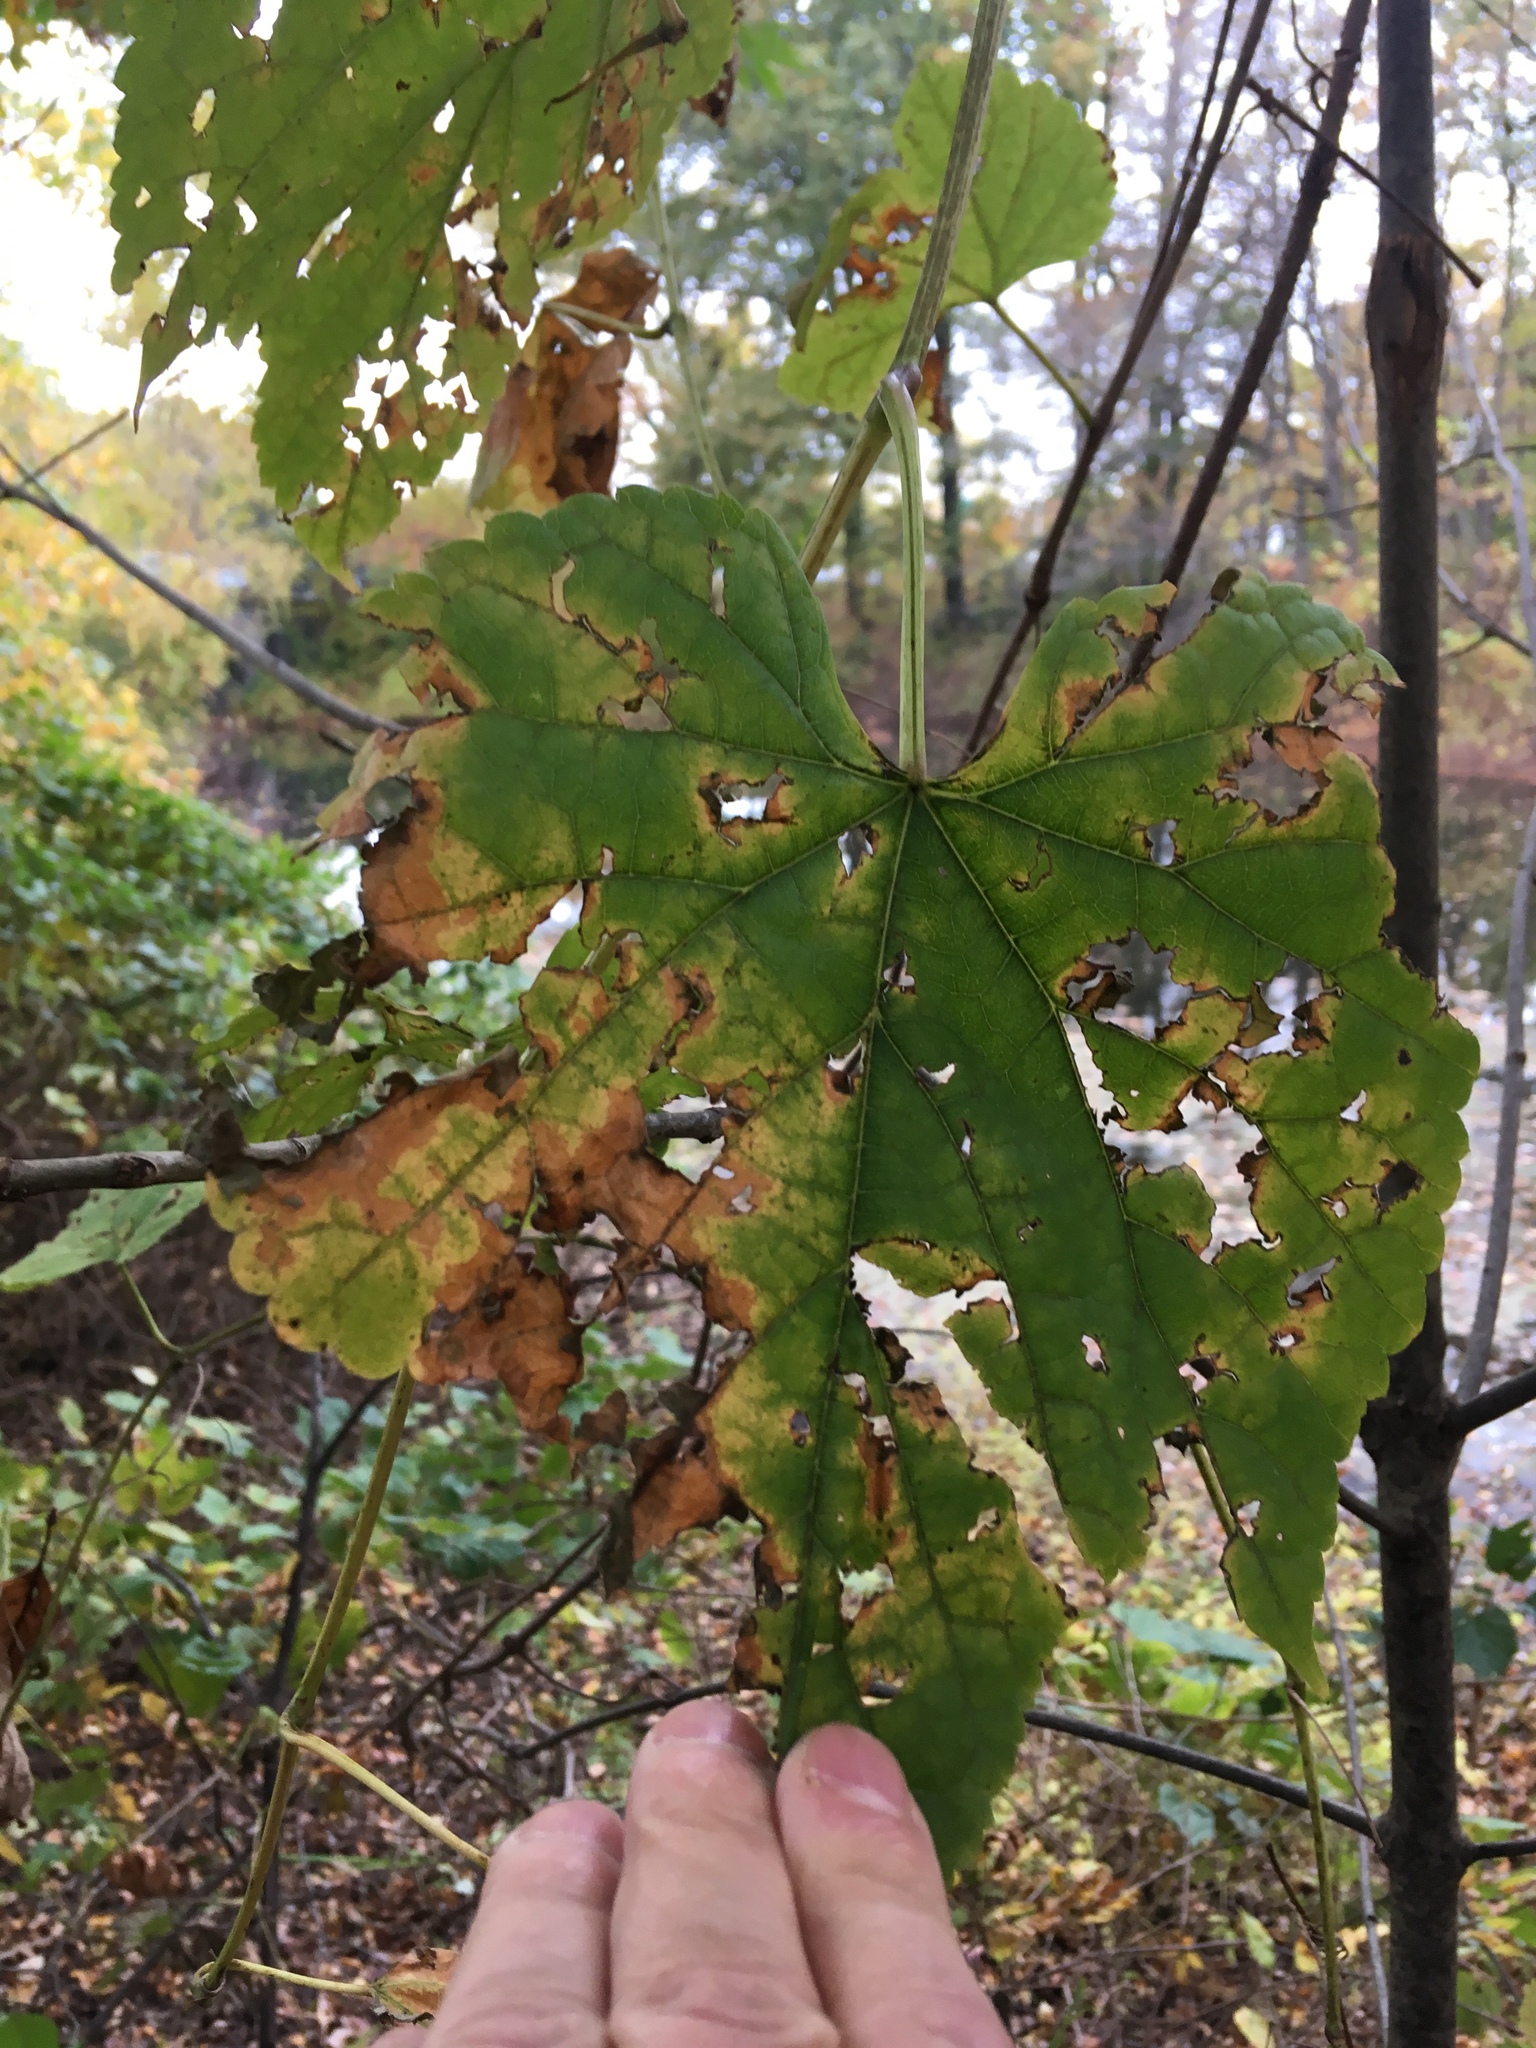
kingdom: Plantae
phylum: Tracheophyta
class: Magnoliopsida
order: Vitales
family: Vitaceae
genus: Ampelopsis
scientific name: Ampelopsis glandulosa
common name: Amur peppervine
